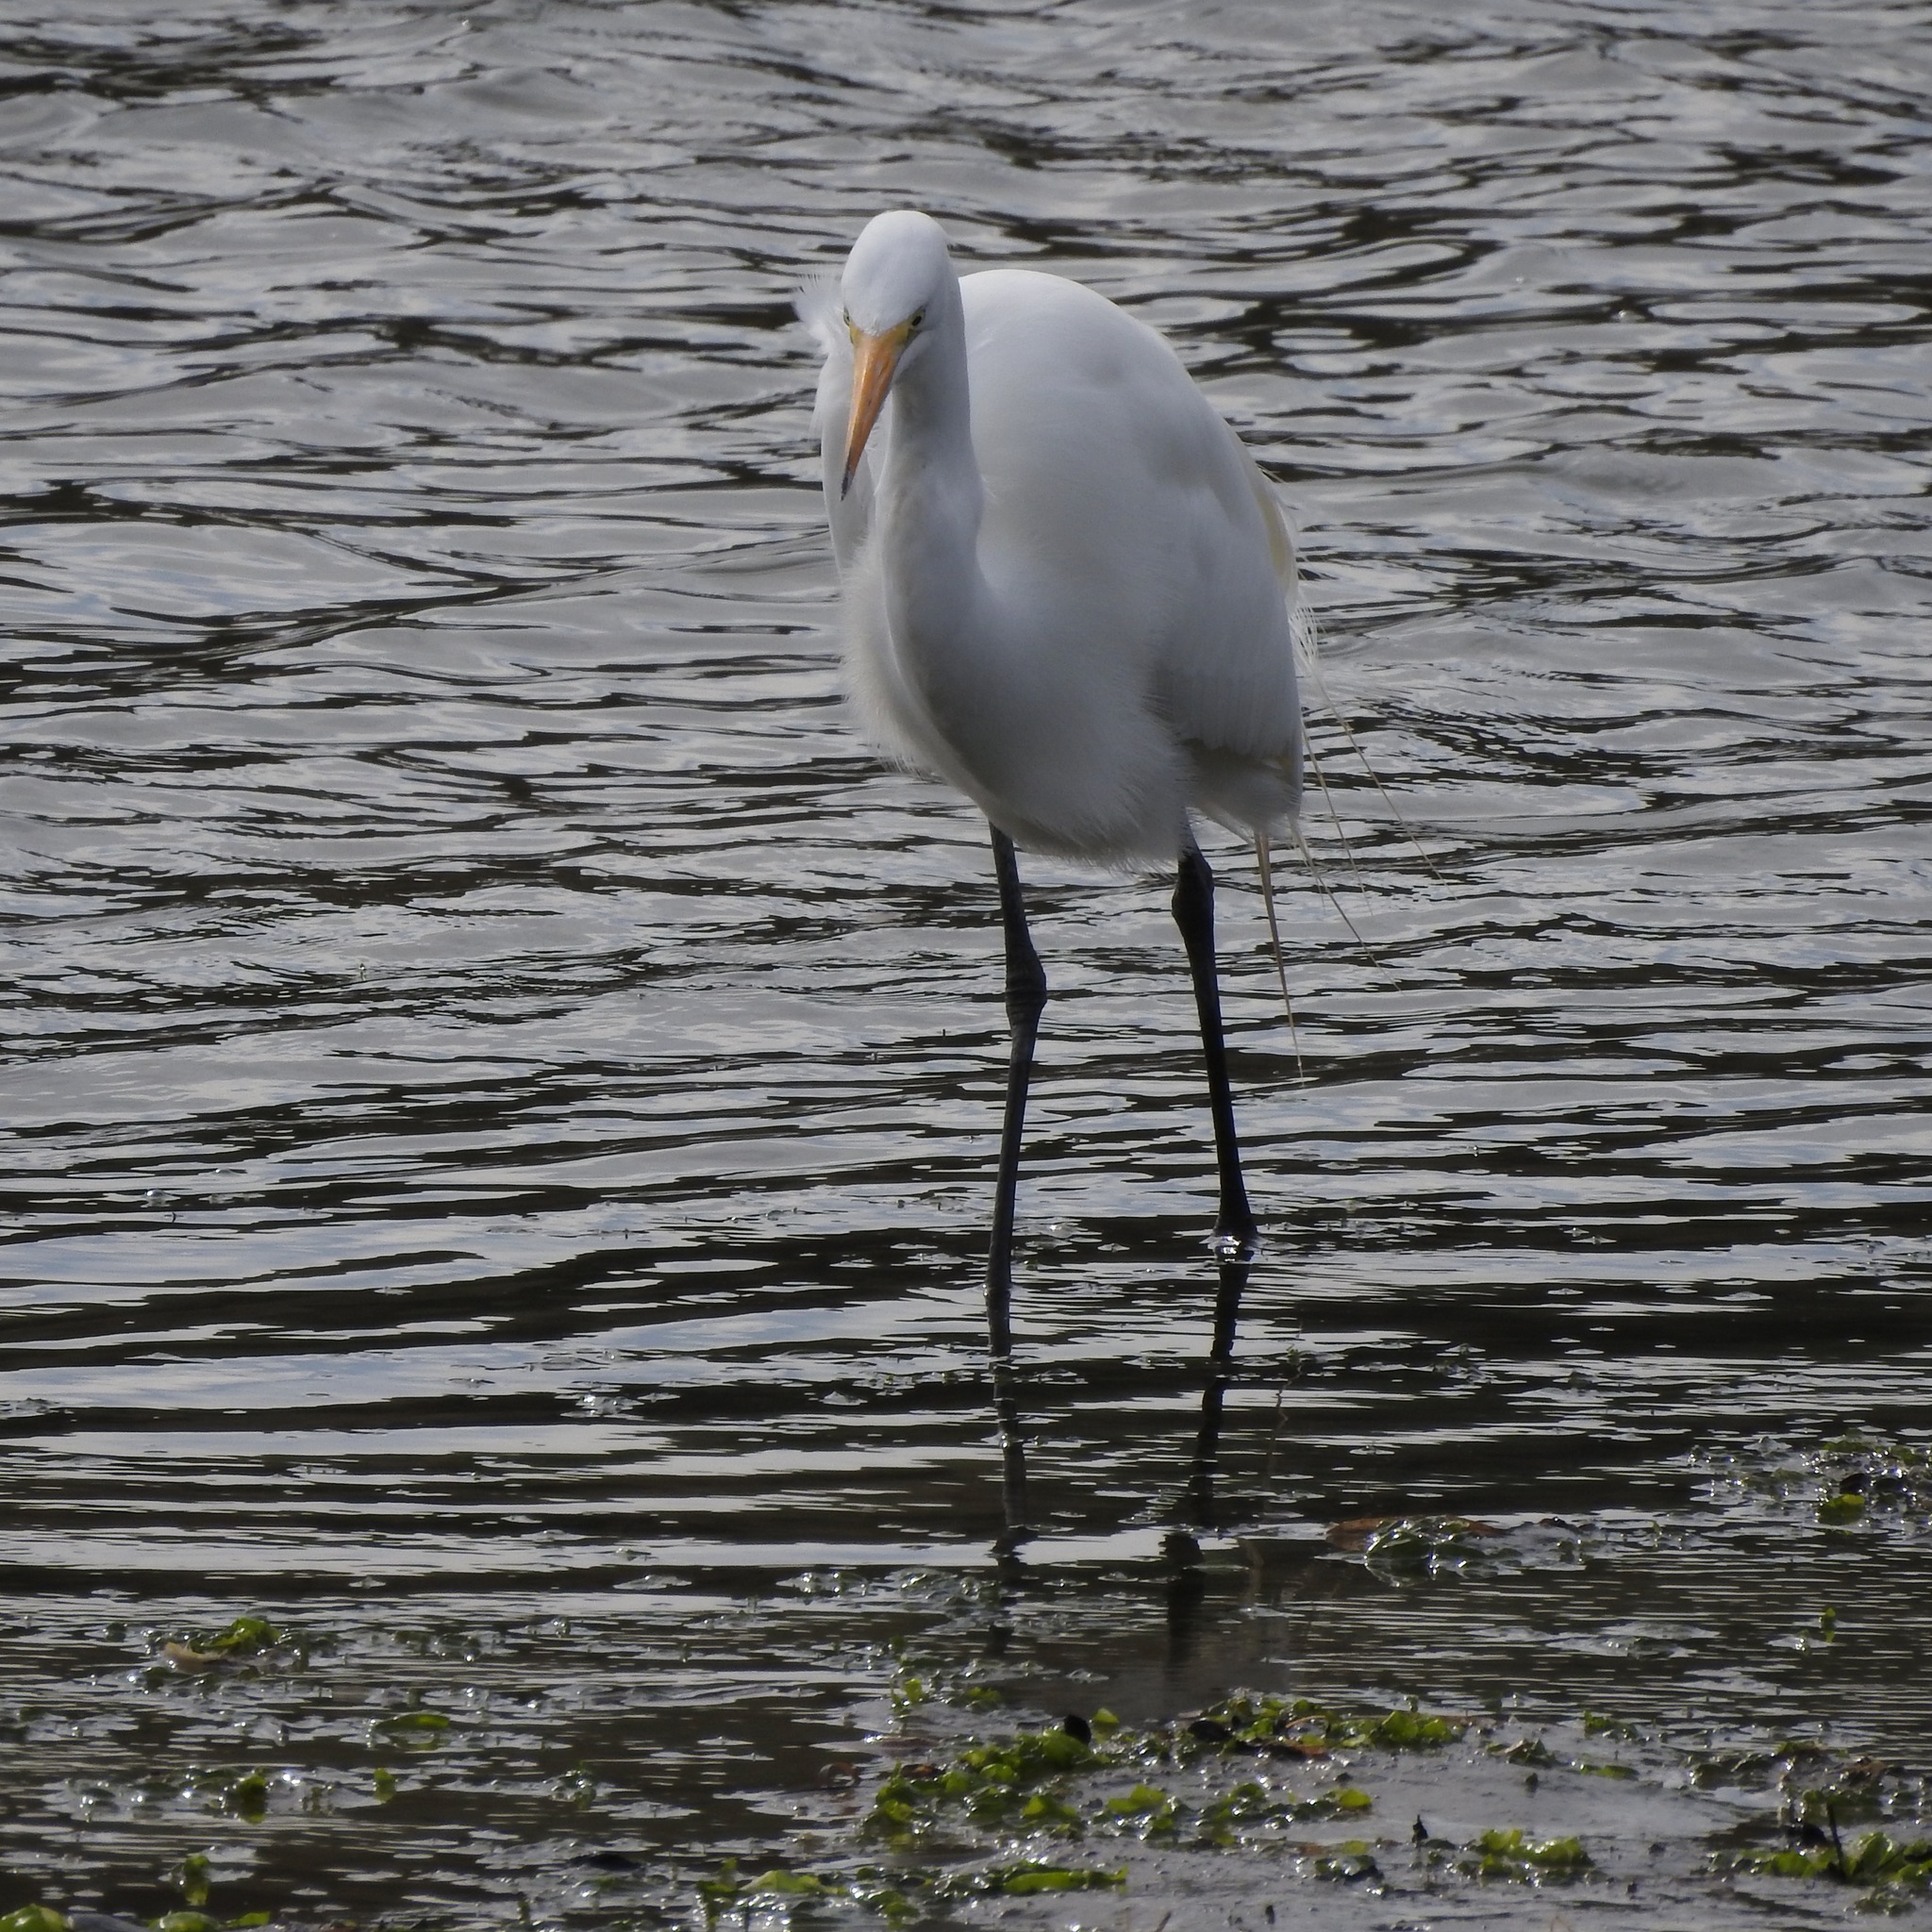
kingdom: Animalia
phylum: Chordata
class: Aves
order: Pelecaniformes
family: Ardeidae
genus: Ardea
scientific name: Ardea alba
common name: Great egret
